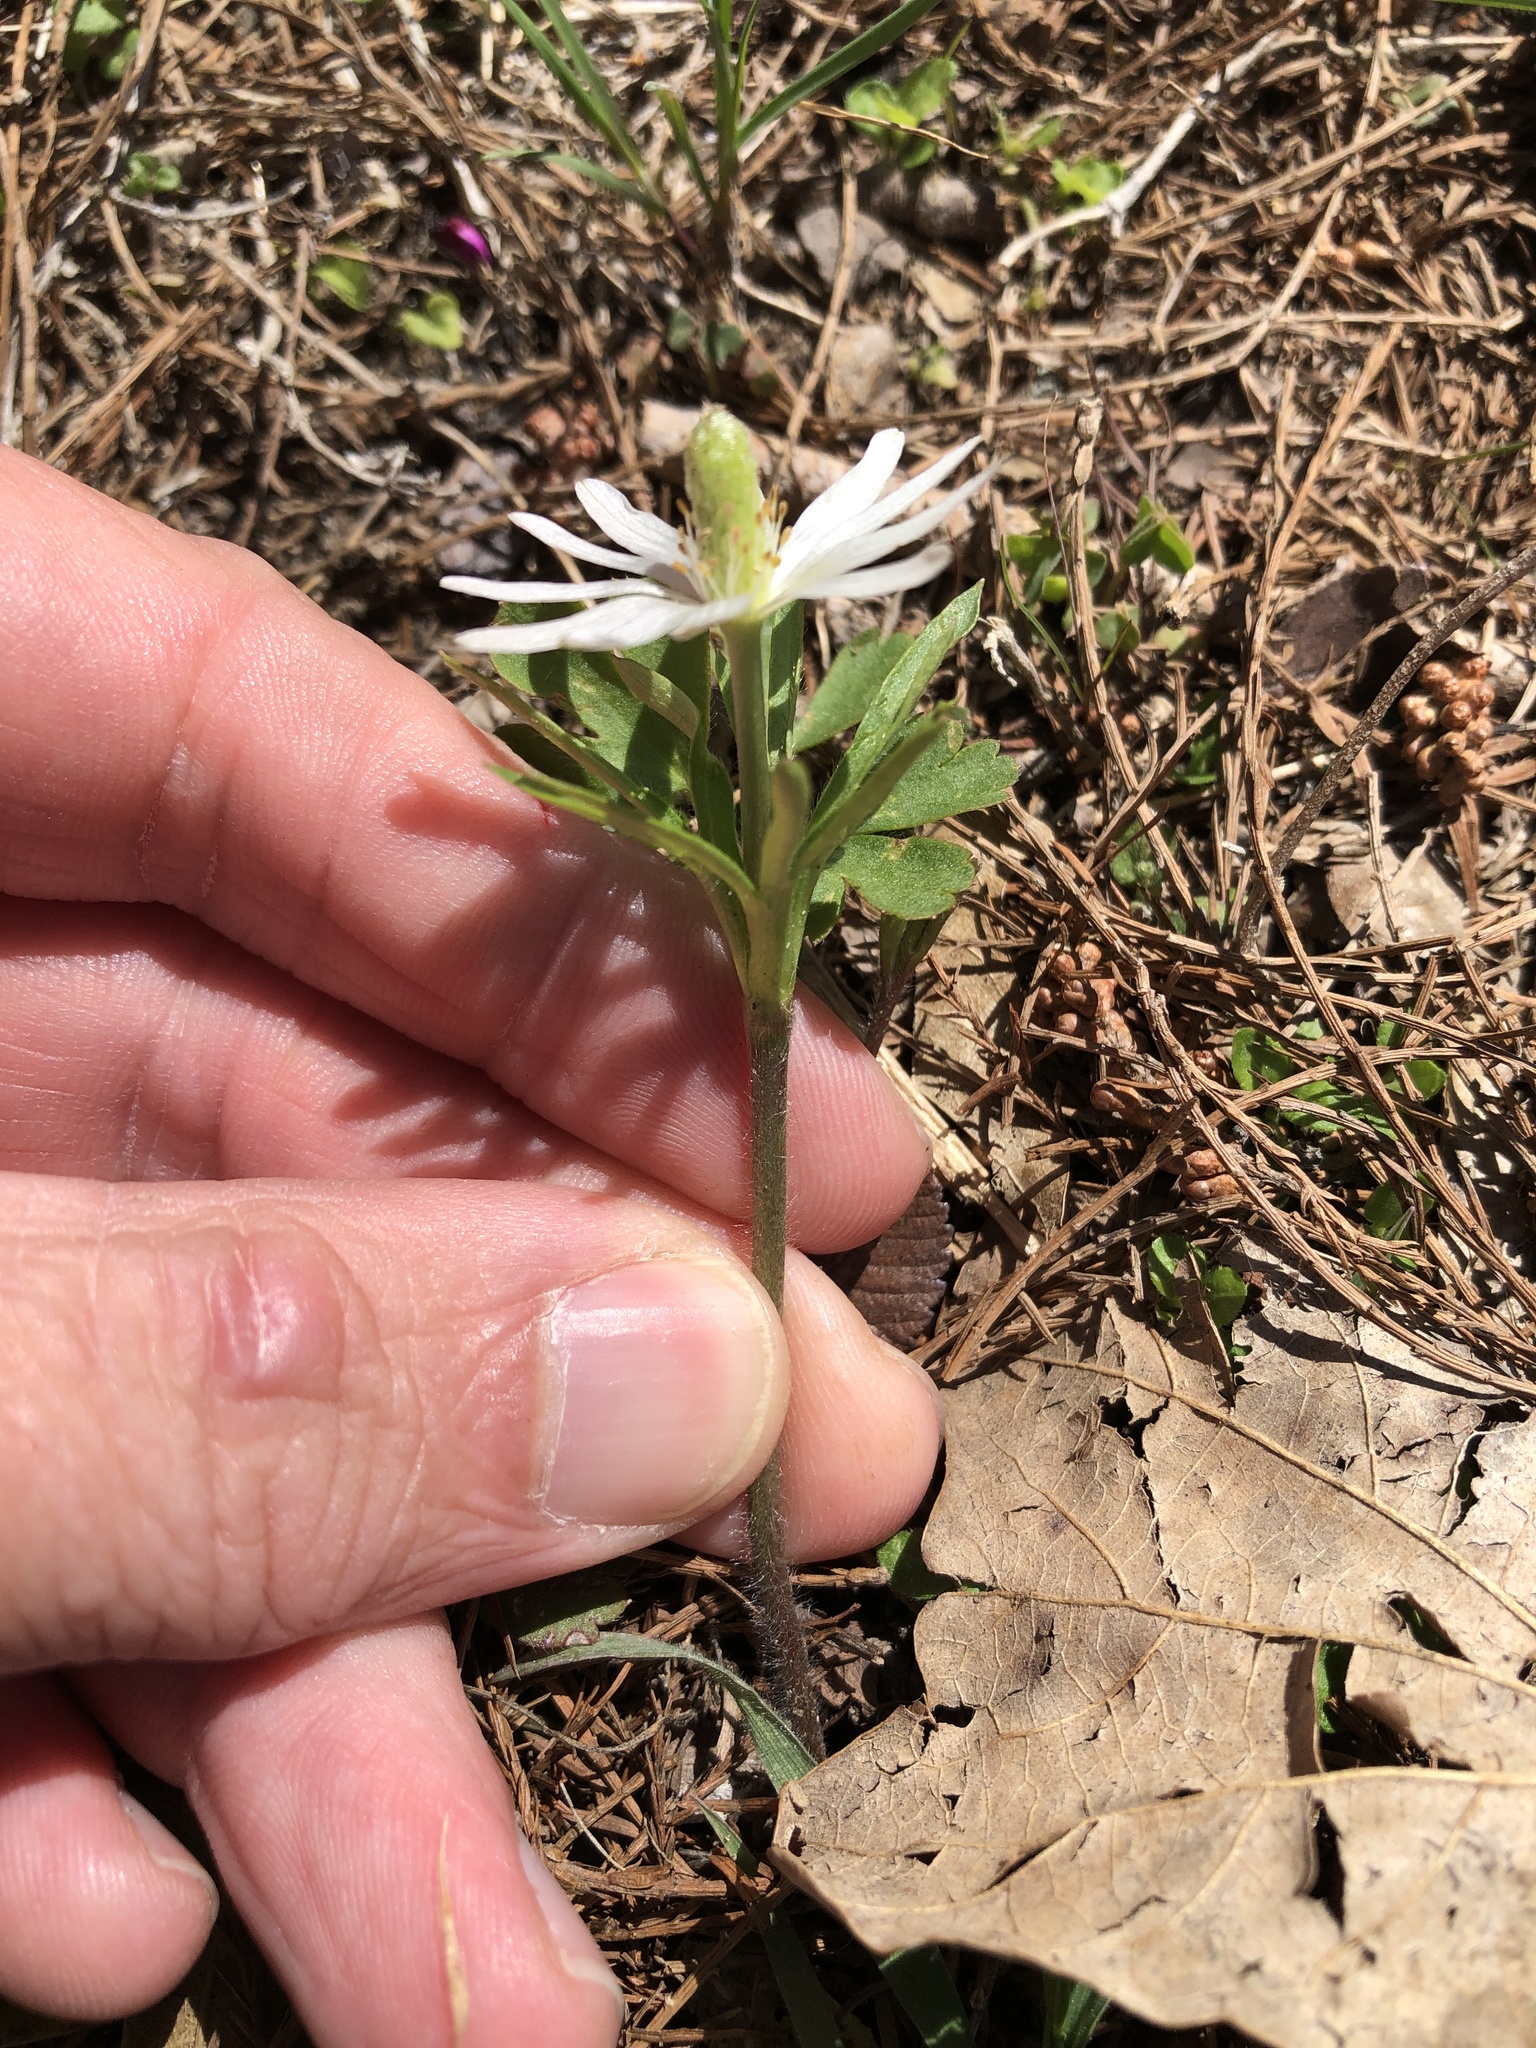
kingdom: Plantae
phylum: Tracheophyta
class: Magnoliopsida
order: Ranunculales
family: Ranunculaceae
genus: Anemone
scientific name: Anemone berlandieri
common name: Ten-petal anemone
